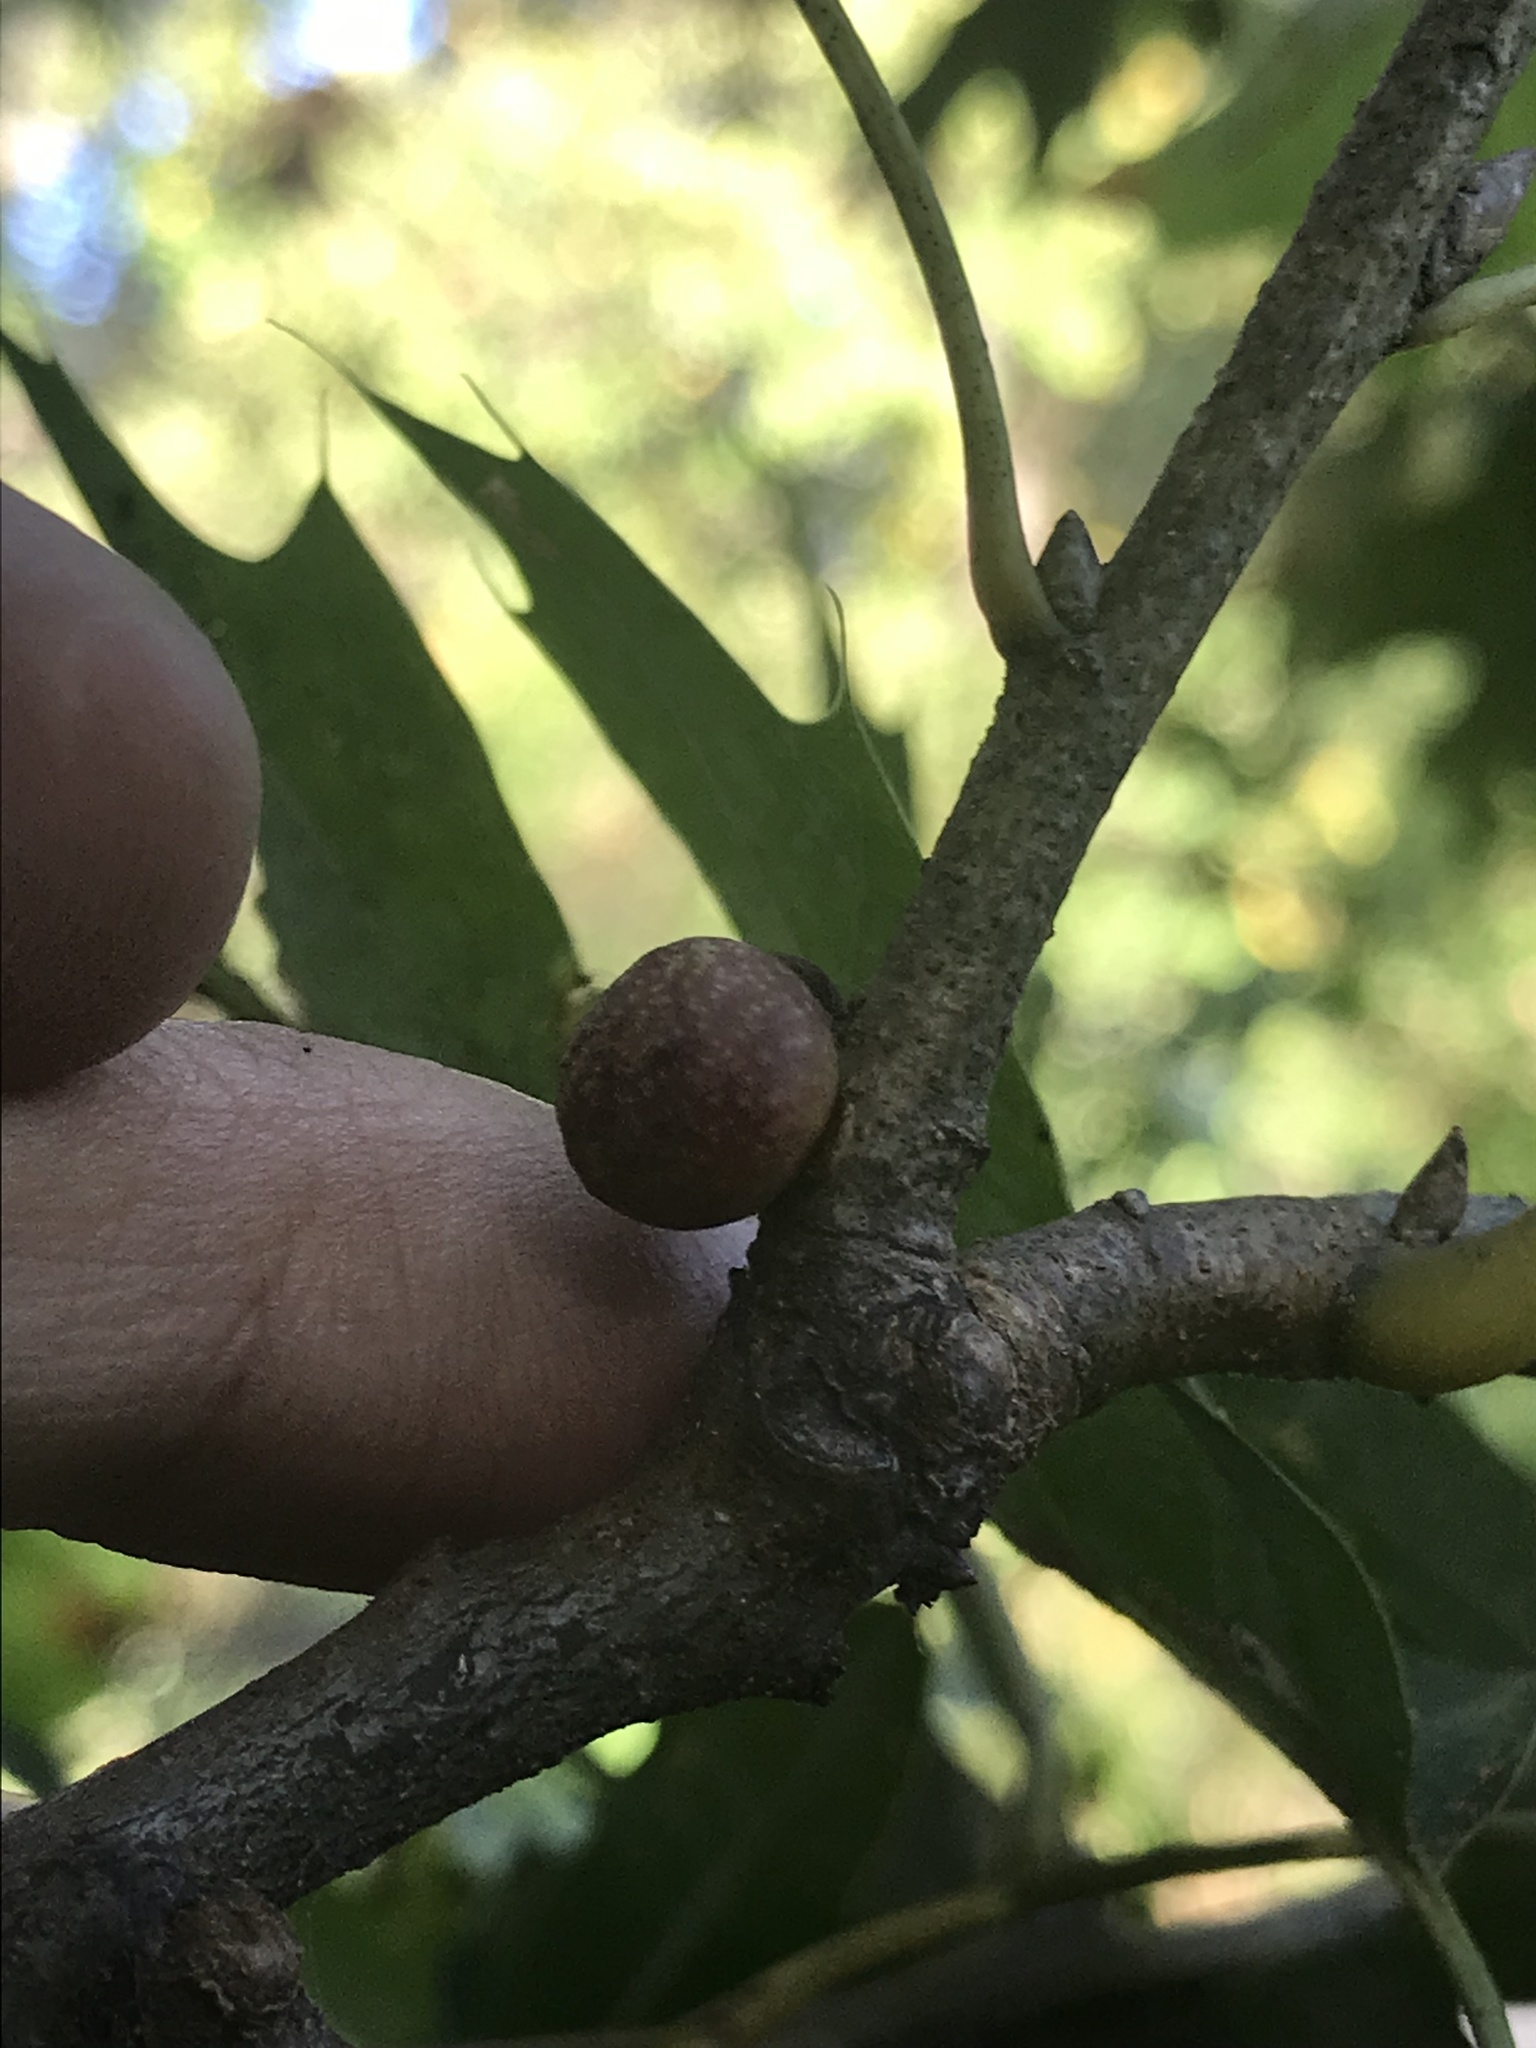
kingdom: Animalia
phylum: Arthropoda
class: Insecta
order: Hymenoptera
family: Cynipidae
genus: Kokkocynips
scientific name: Kokkocynips imbricariae
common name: Banded bullet gall wasp
